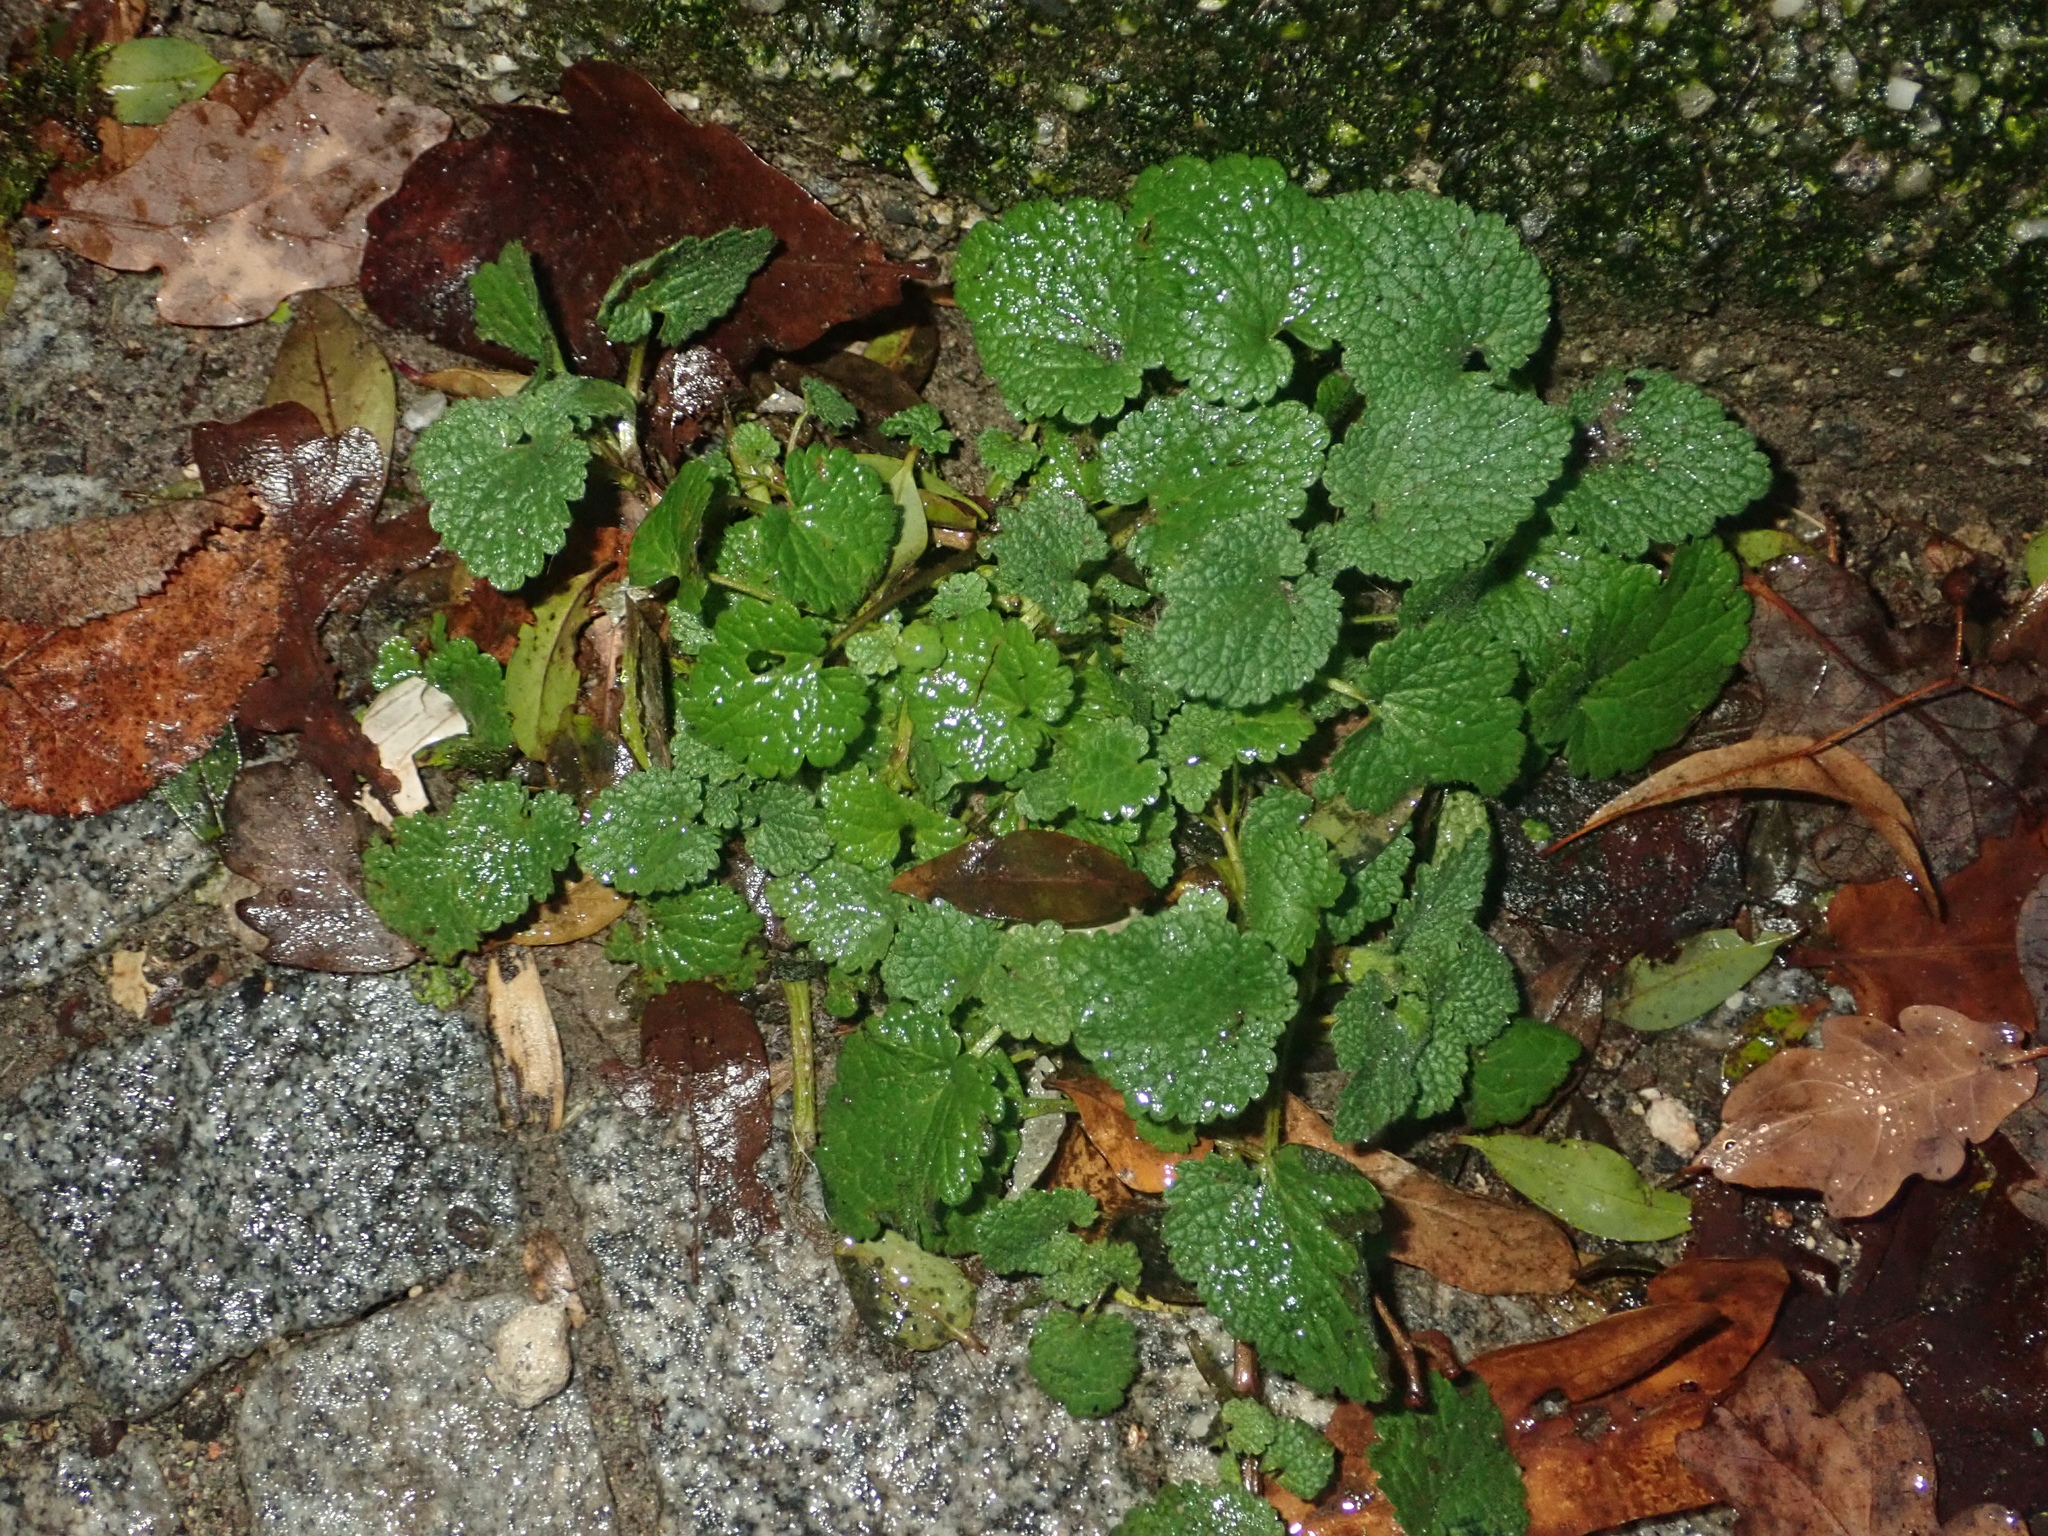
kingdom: Plantae
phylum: Tracheophyta
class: Magnoliopsida
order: Lamiales
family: Lamiaceae
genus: Lamium
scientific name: Lamium purpureum
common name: Red dead-nettle
